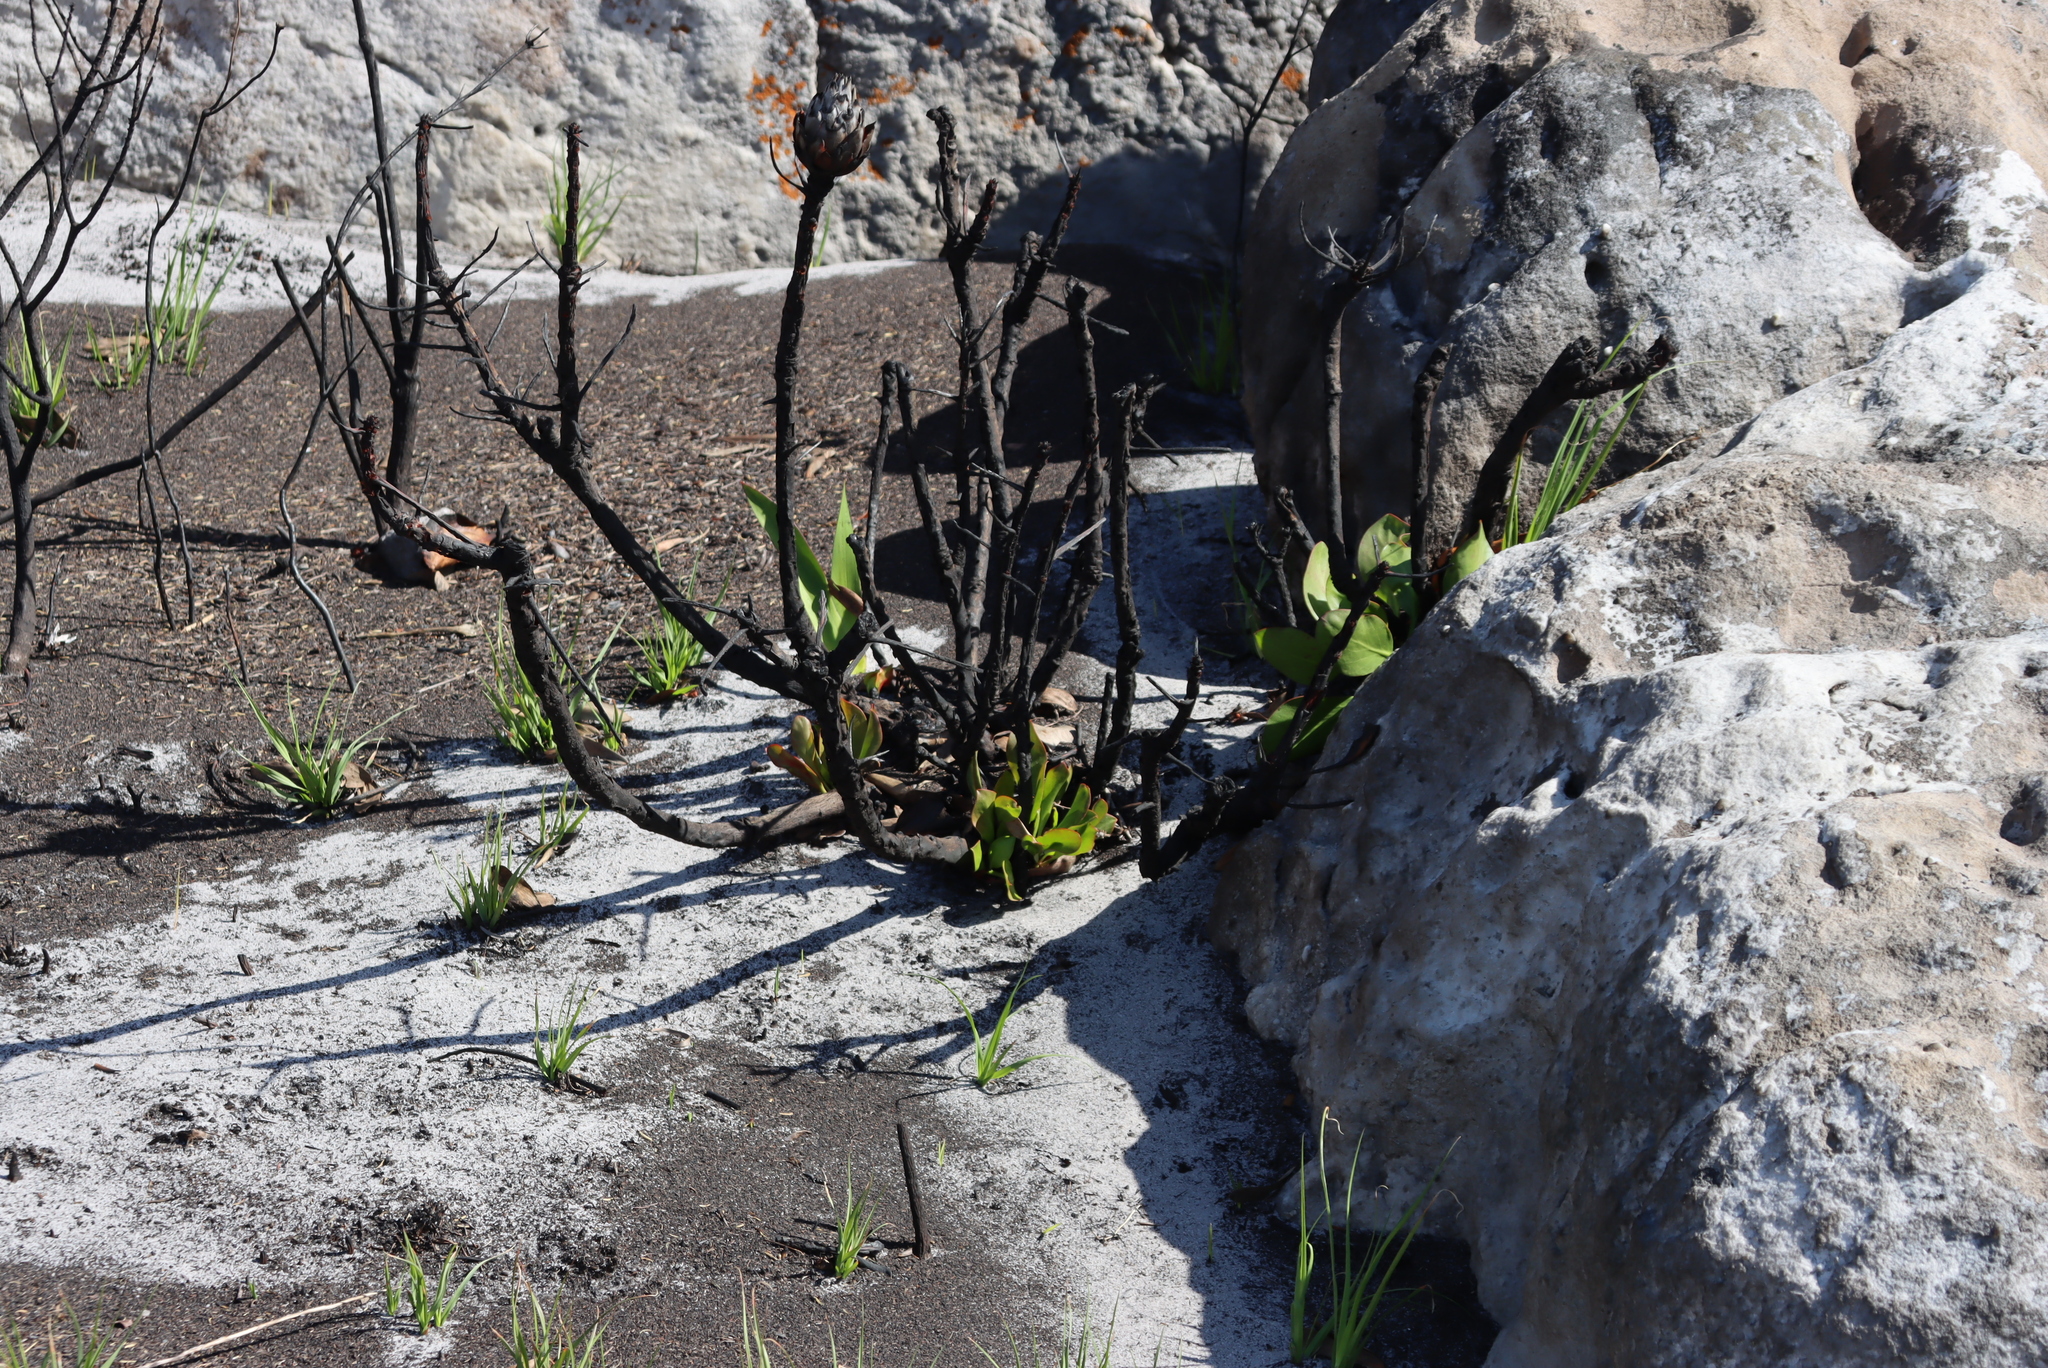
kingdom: Plantae
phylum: Tracheophyta
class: Magnoliopsida
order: Proteales
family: Proteaceae
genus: Protea
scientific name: Protea cynaroides
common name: King protea
